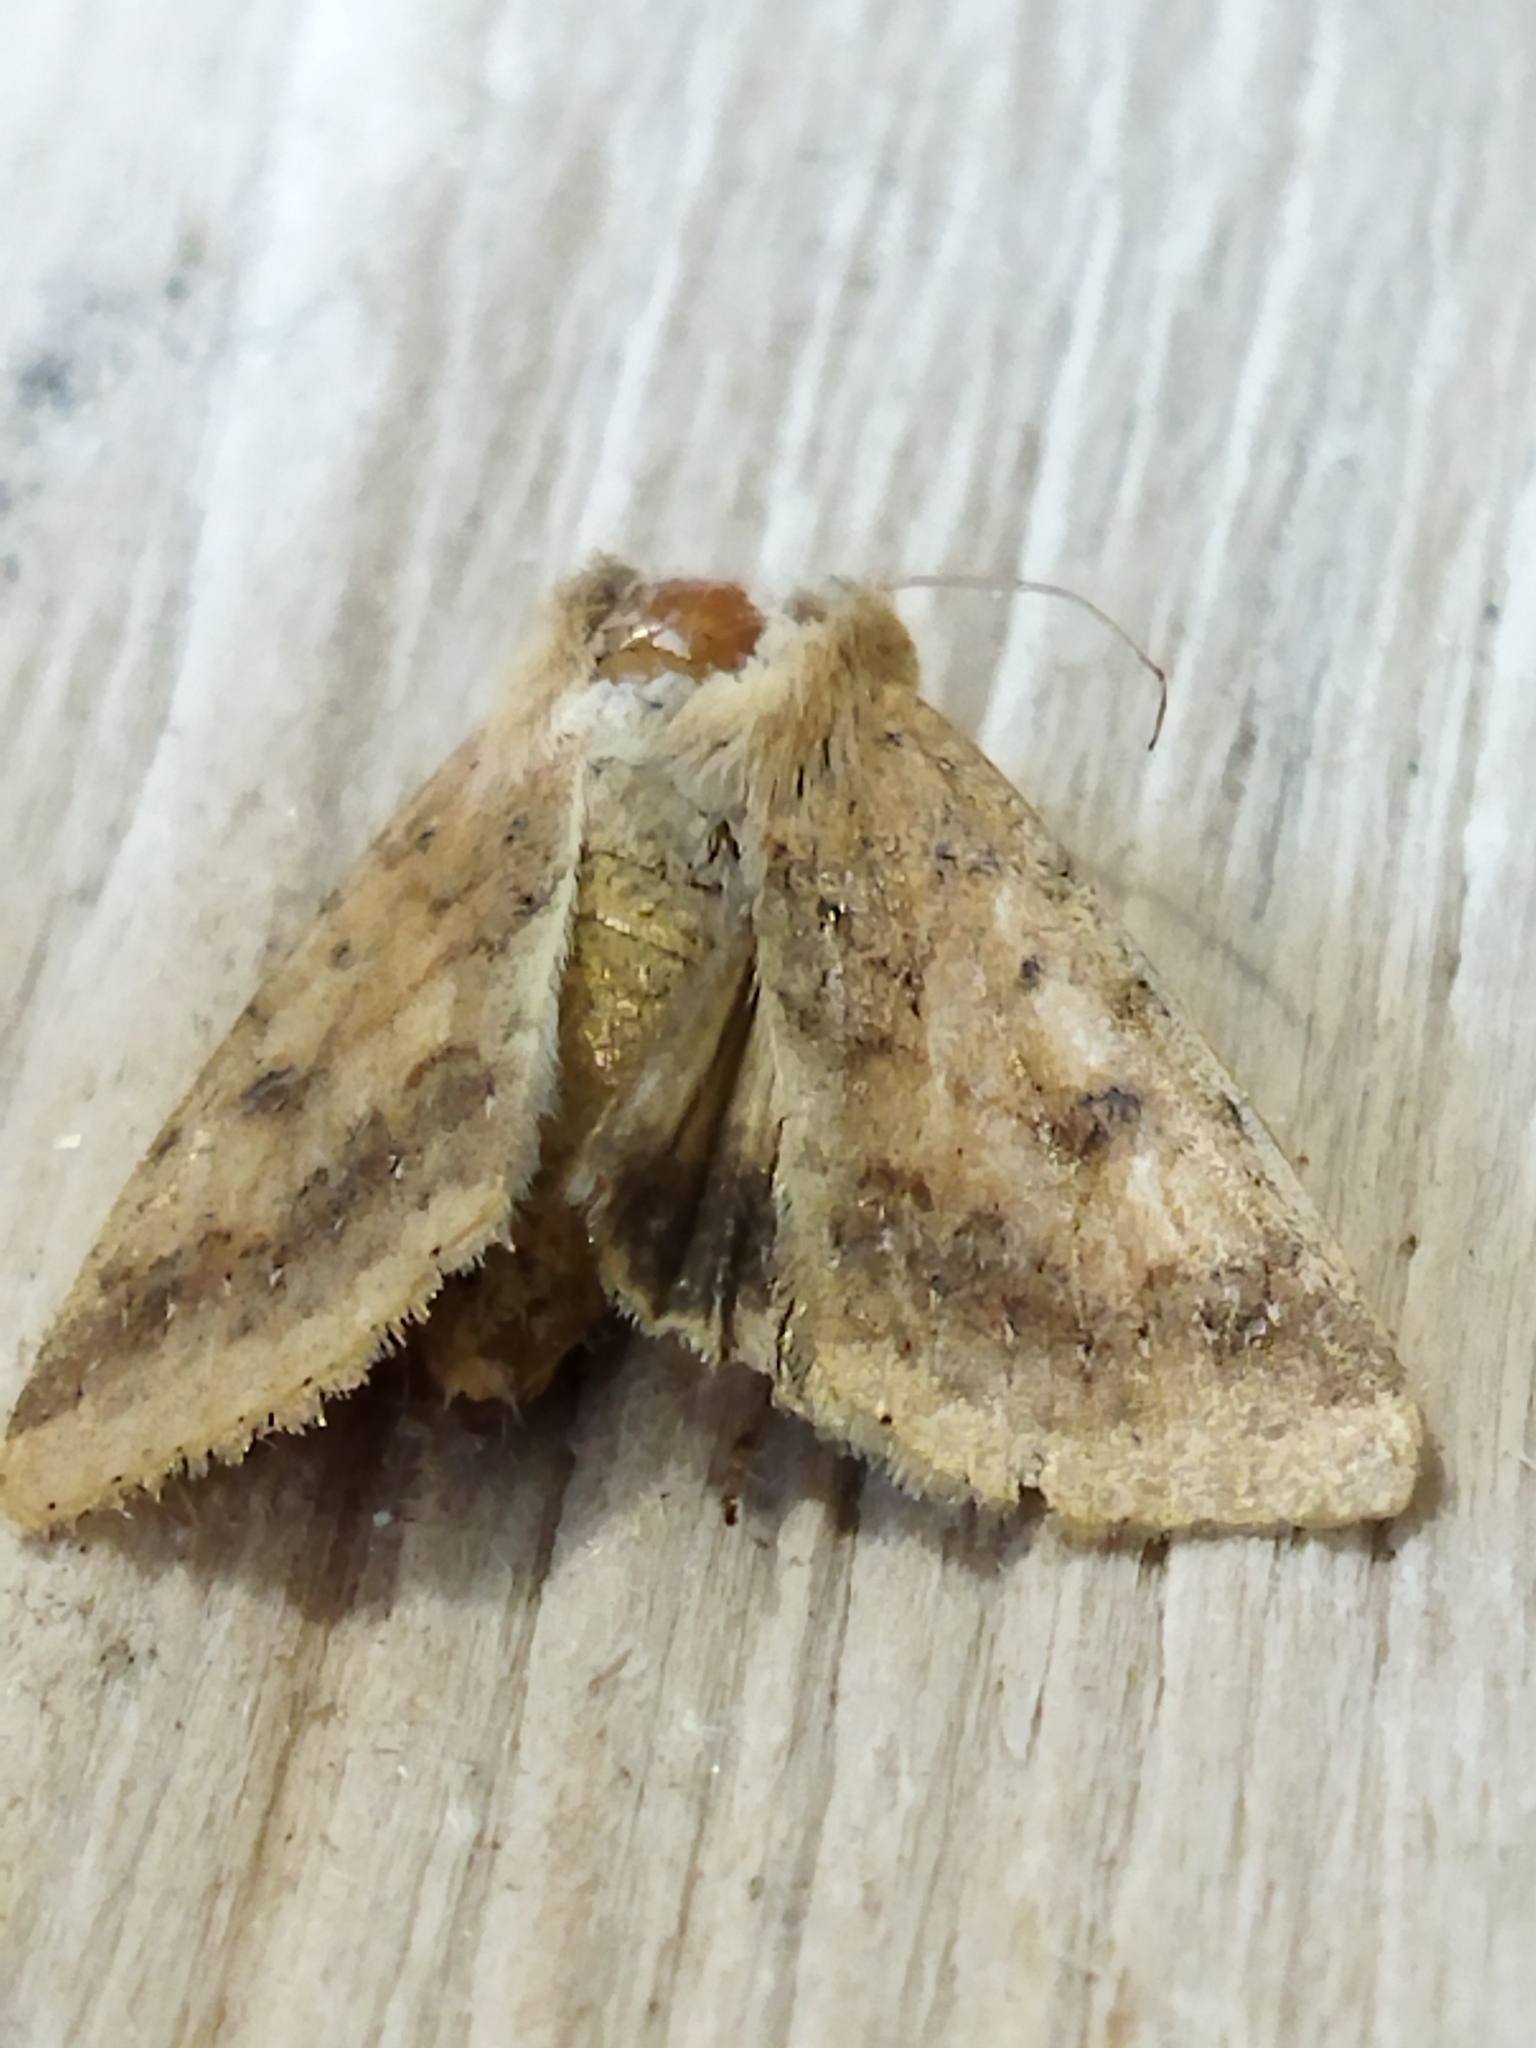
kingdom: Animalia
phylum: Arthropoda
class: Insecta
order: Lepidoptera
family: Noctuidae
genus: Helicoverpa
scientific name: Helicoverpa armigera
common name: Cotton bollworm
